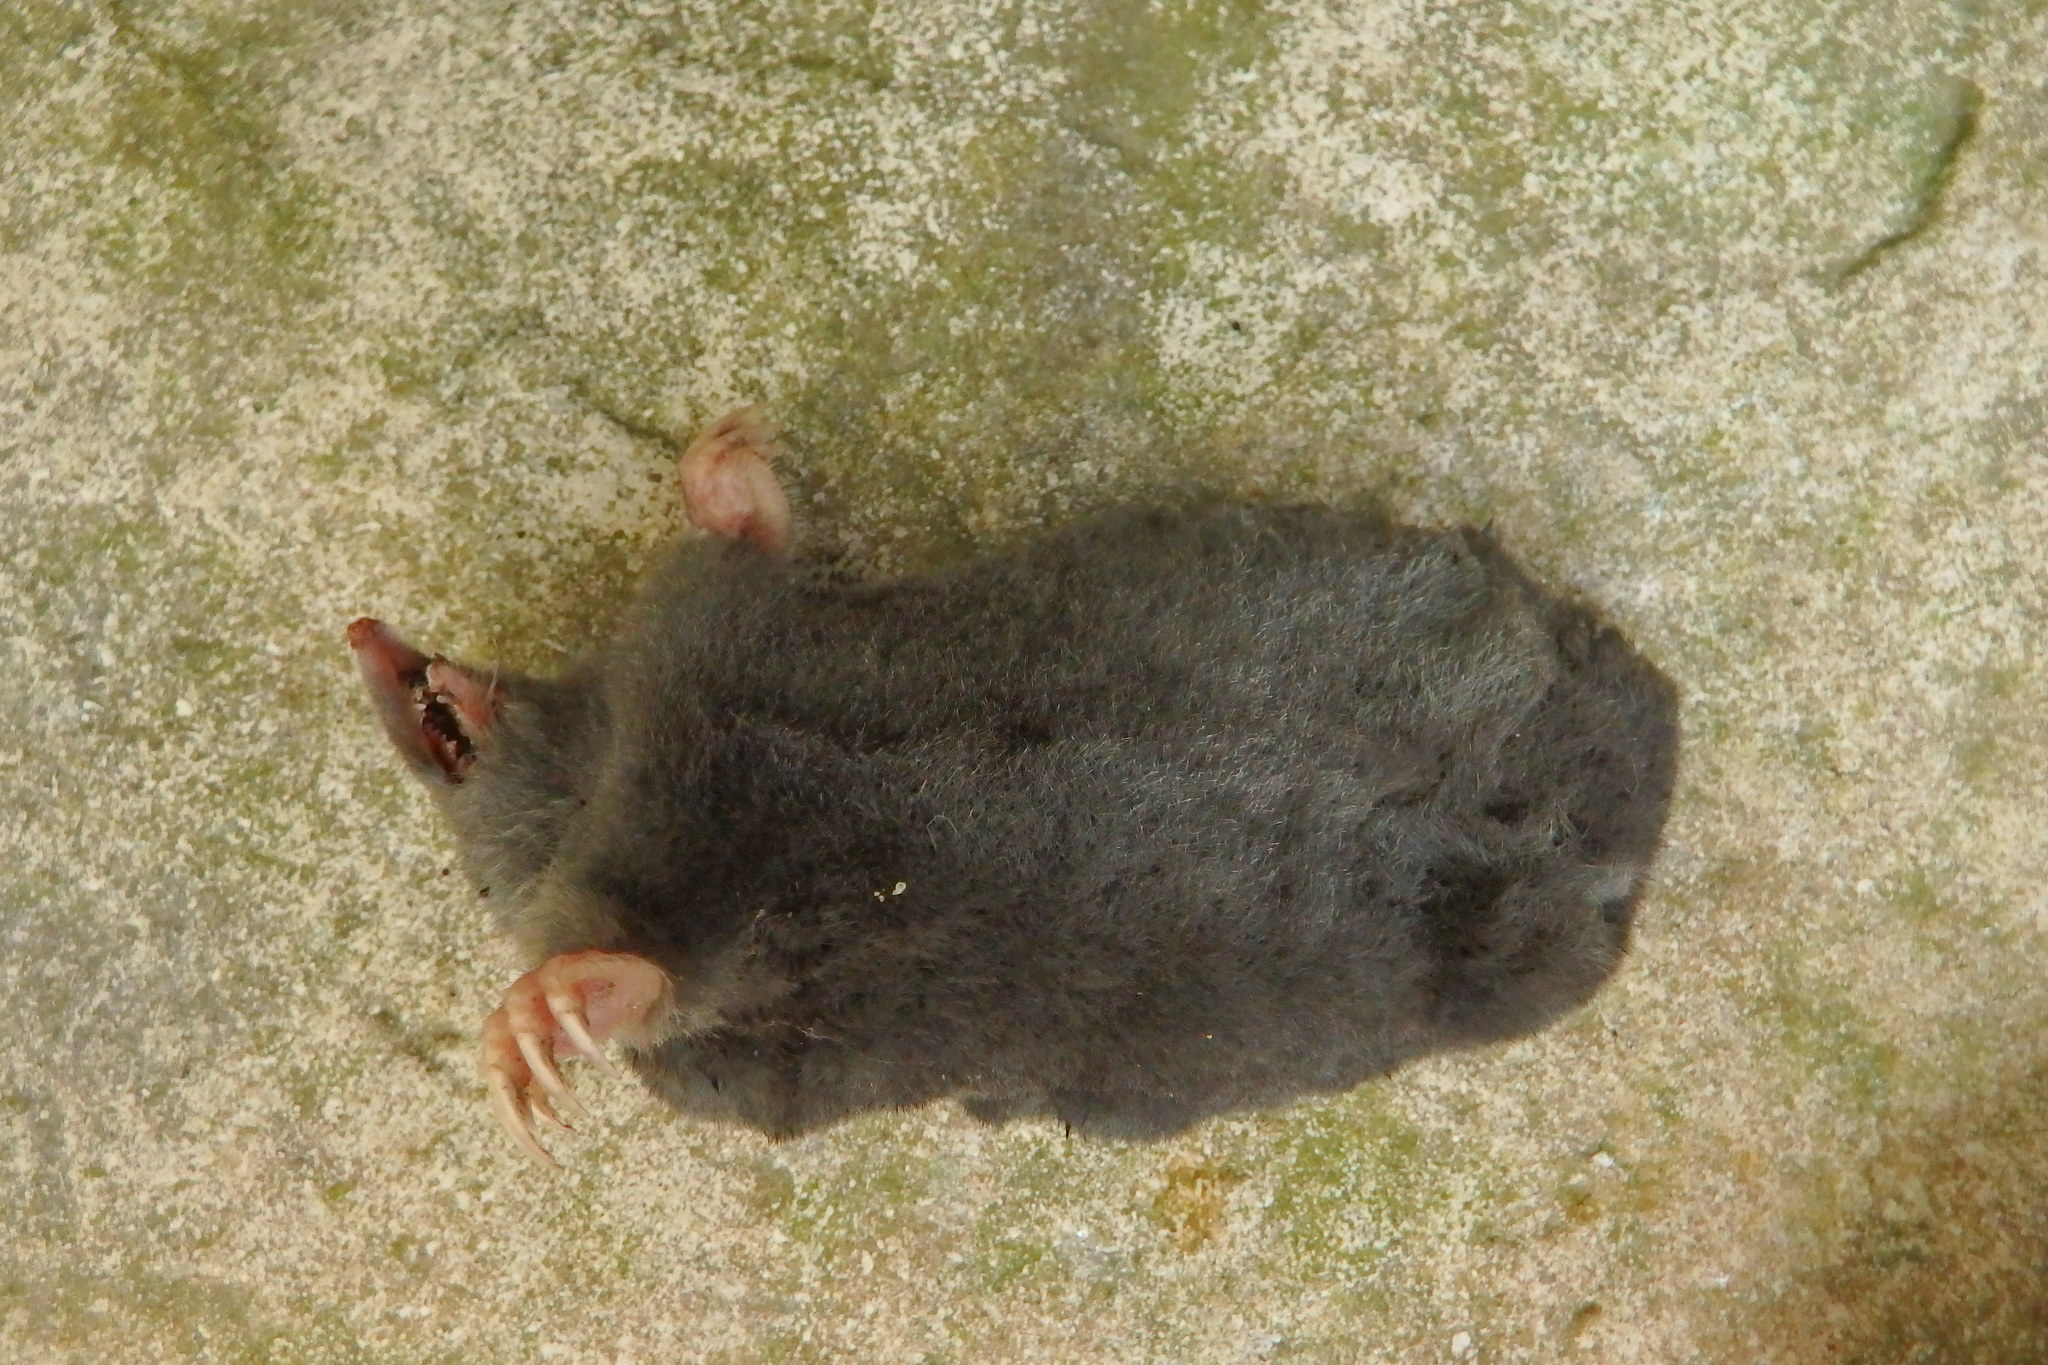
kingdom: Animalia
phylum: Chordata
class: Mammalia
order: Soricomorpha
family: Talpidae
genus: Talpa
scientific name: Talpa occidentalis
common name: Iberian mole
